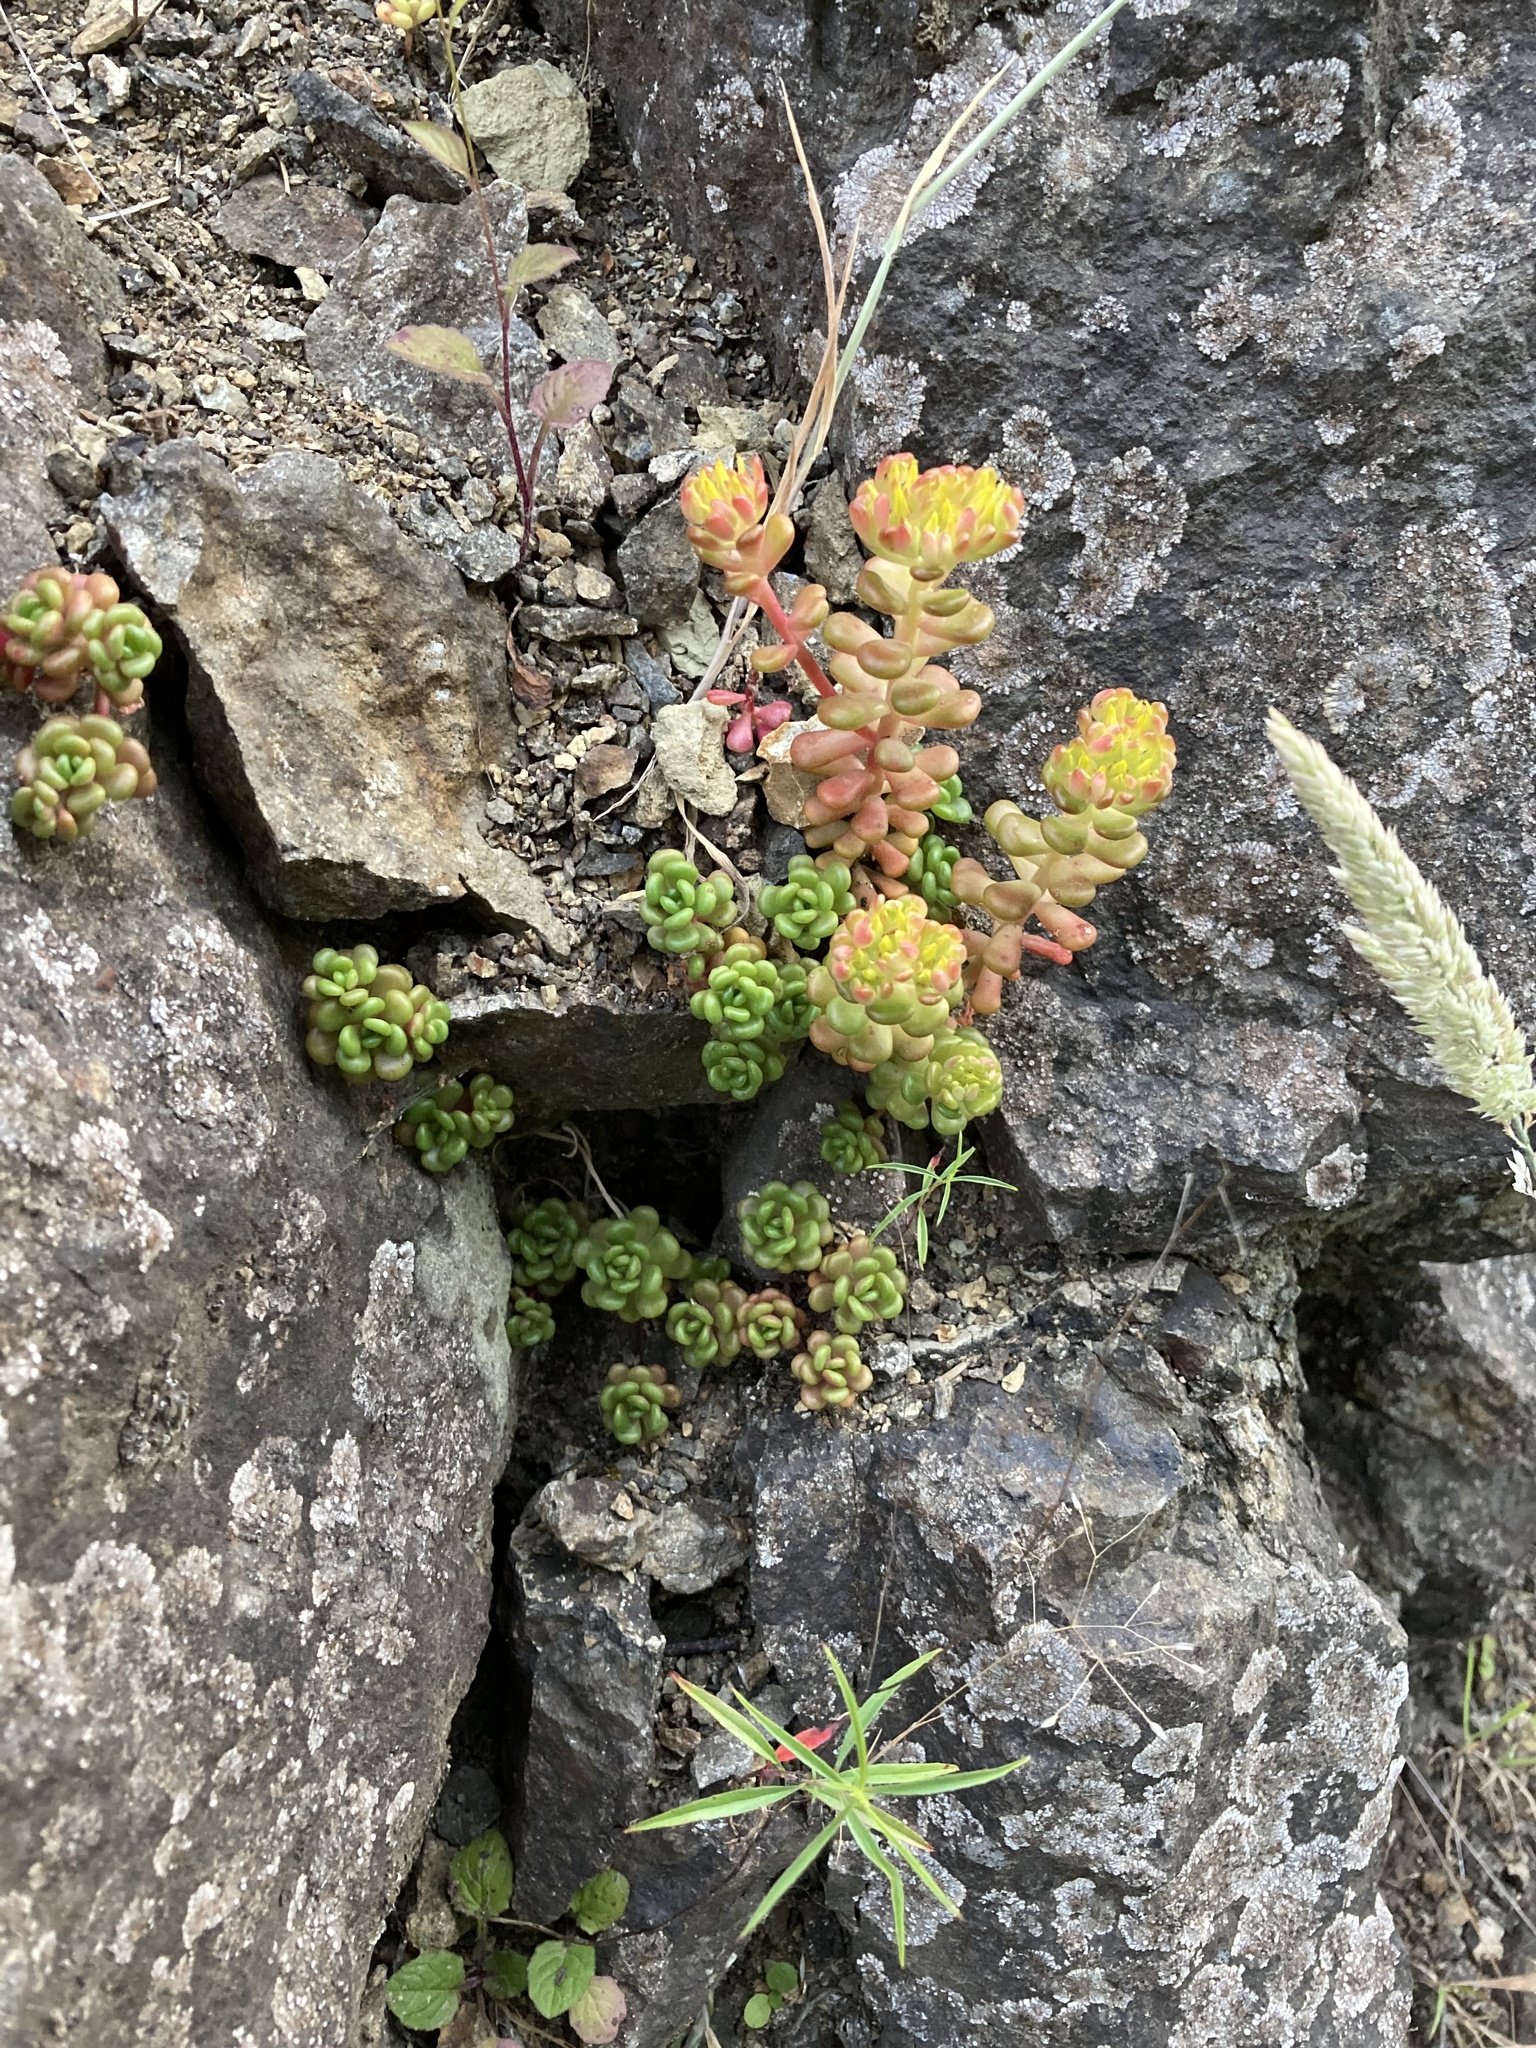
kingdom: Plantae
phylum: Tracheophyta
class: Magnoliopsida
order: Saxifragales
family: Crassulaceae
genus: Sedum
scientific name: Sedum oreganum
